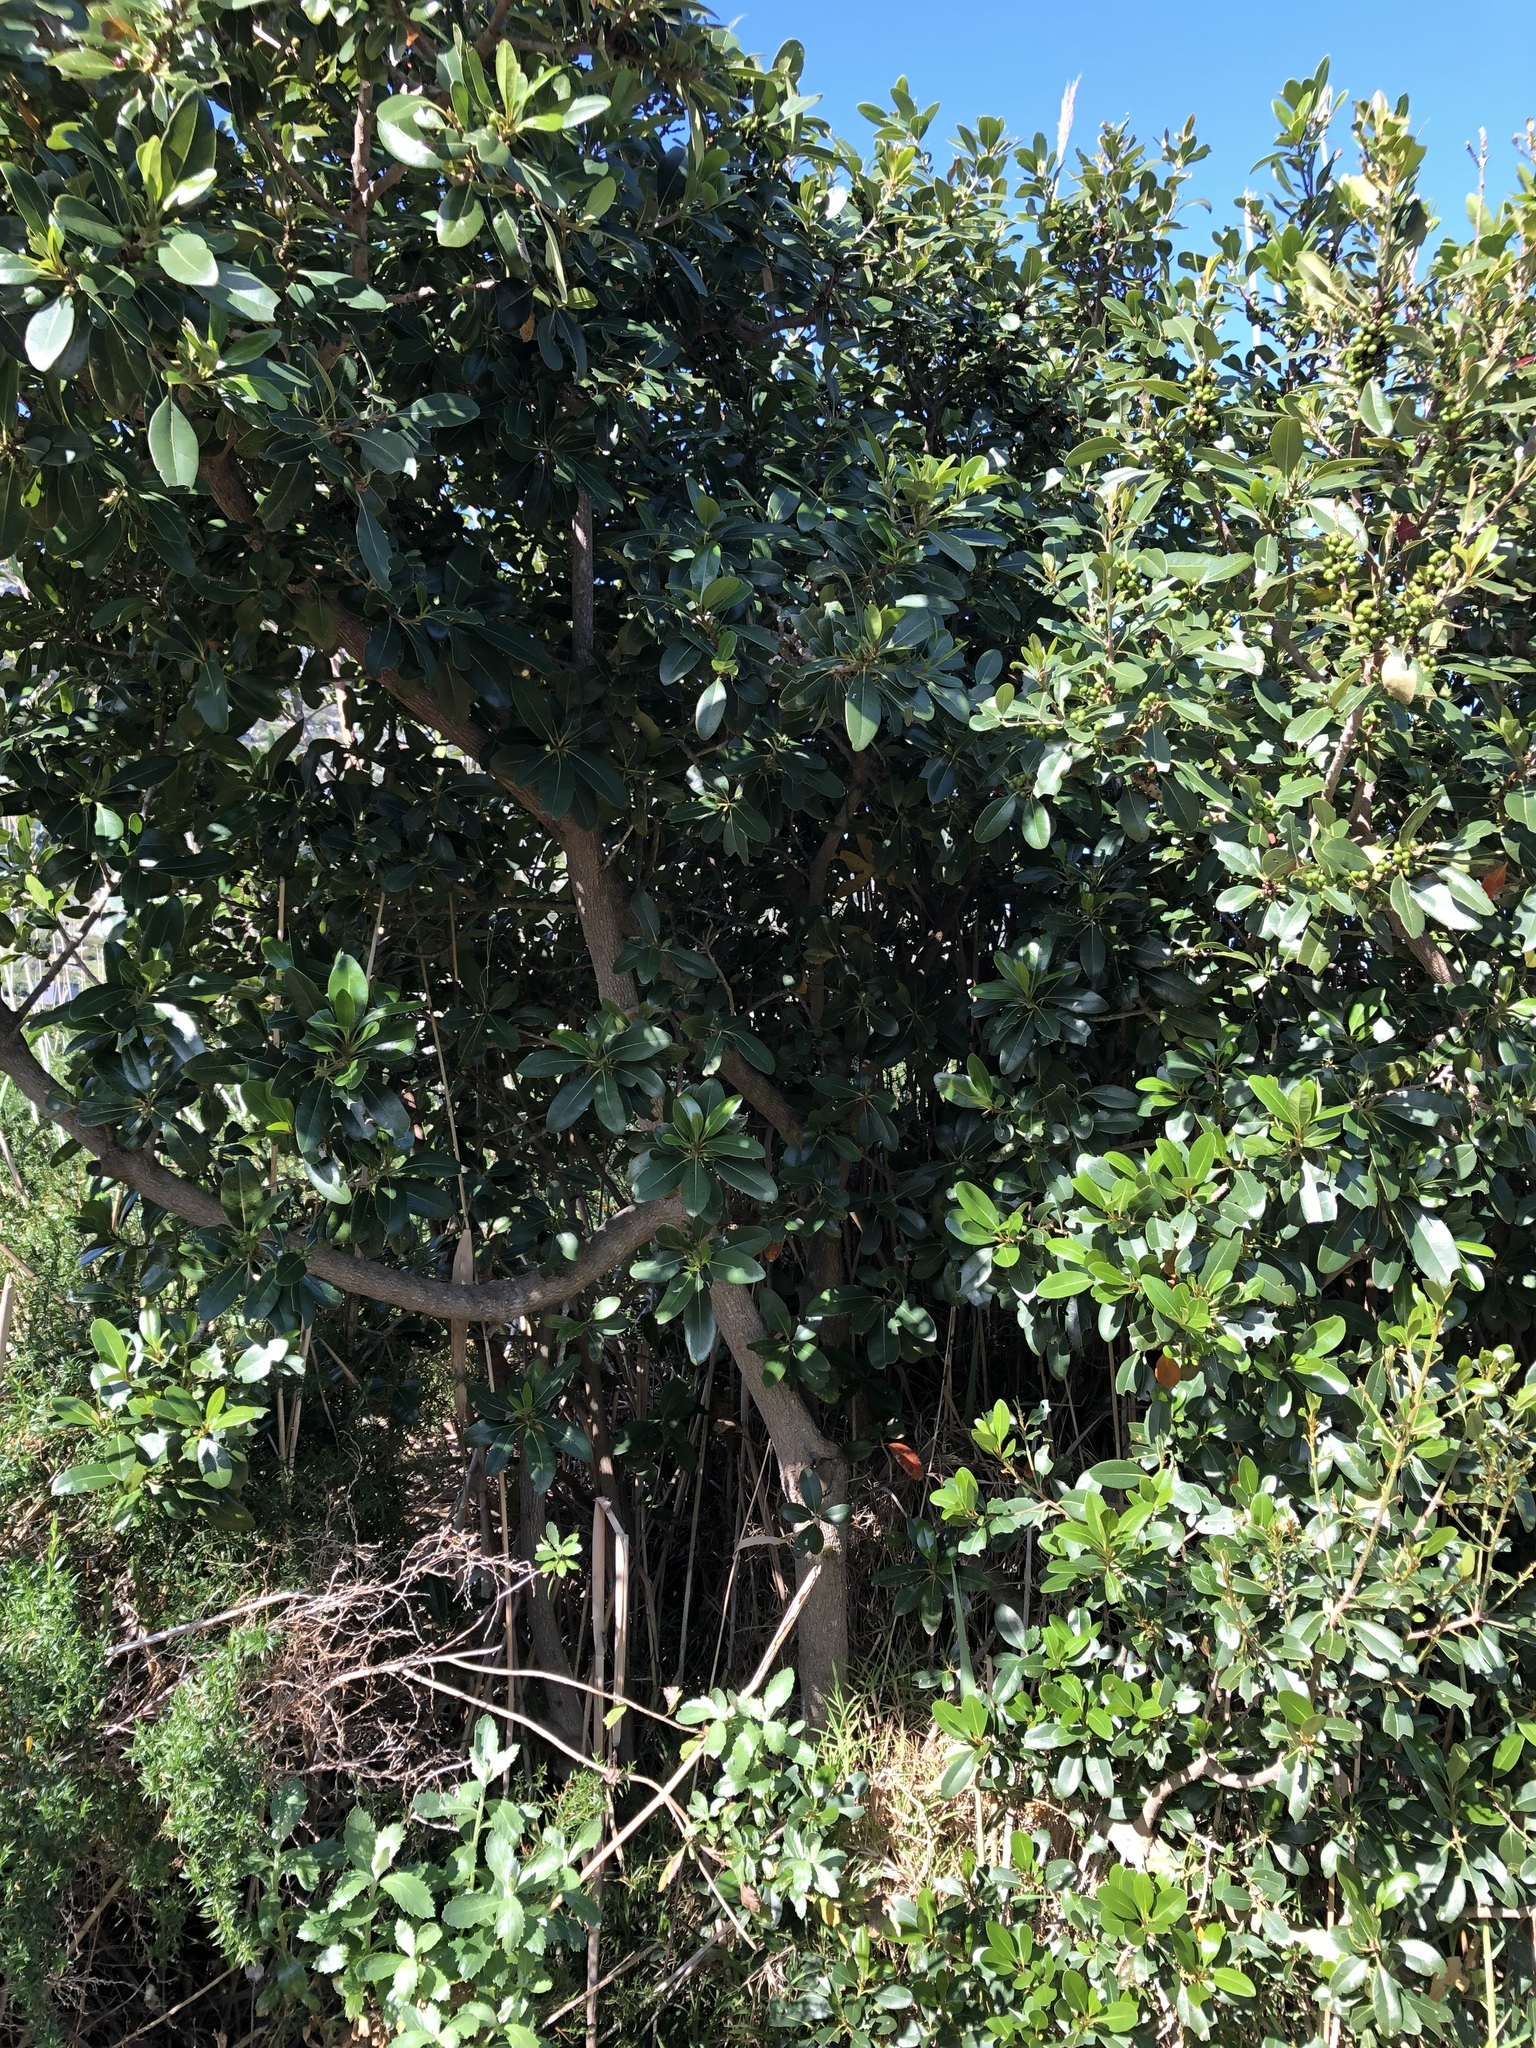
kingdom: Plantae
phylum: Tracheophyta
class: Magnoliopsida
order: Ericales
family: Sapotaceae
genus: Sideroxylon
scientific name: Sideroxylon inerme
